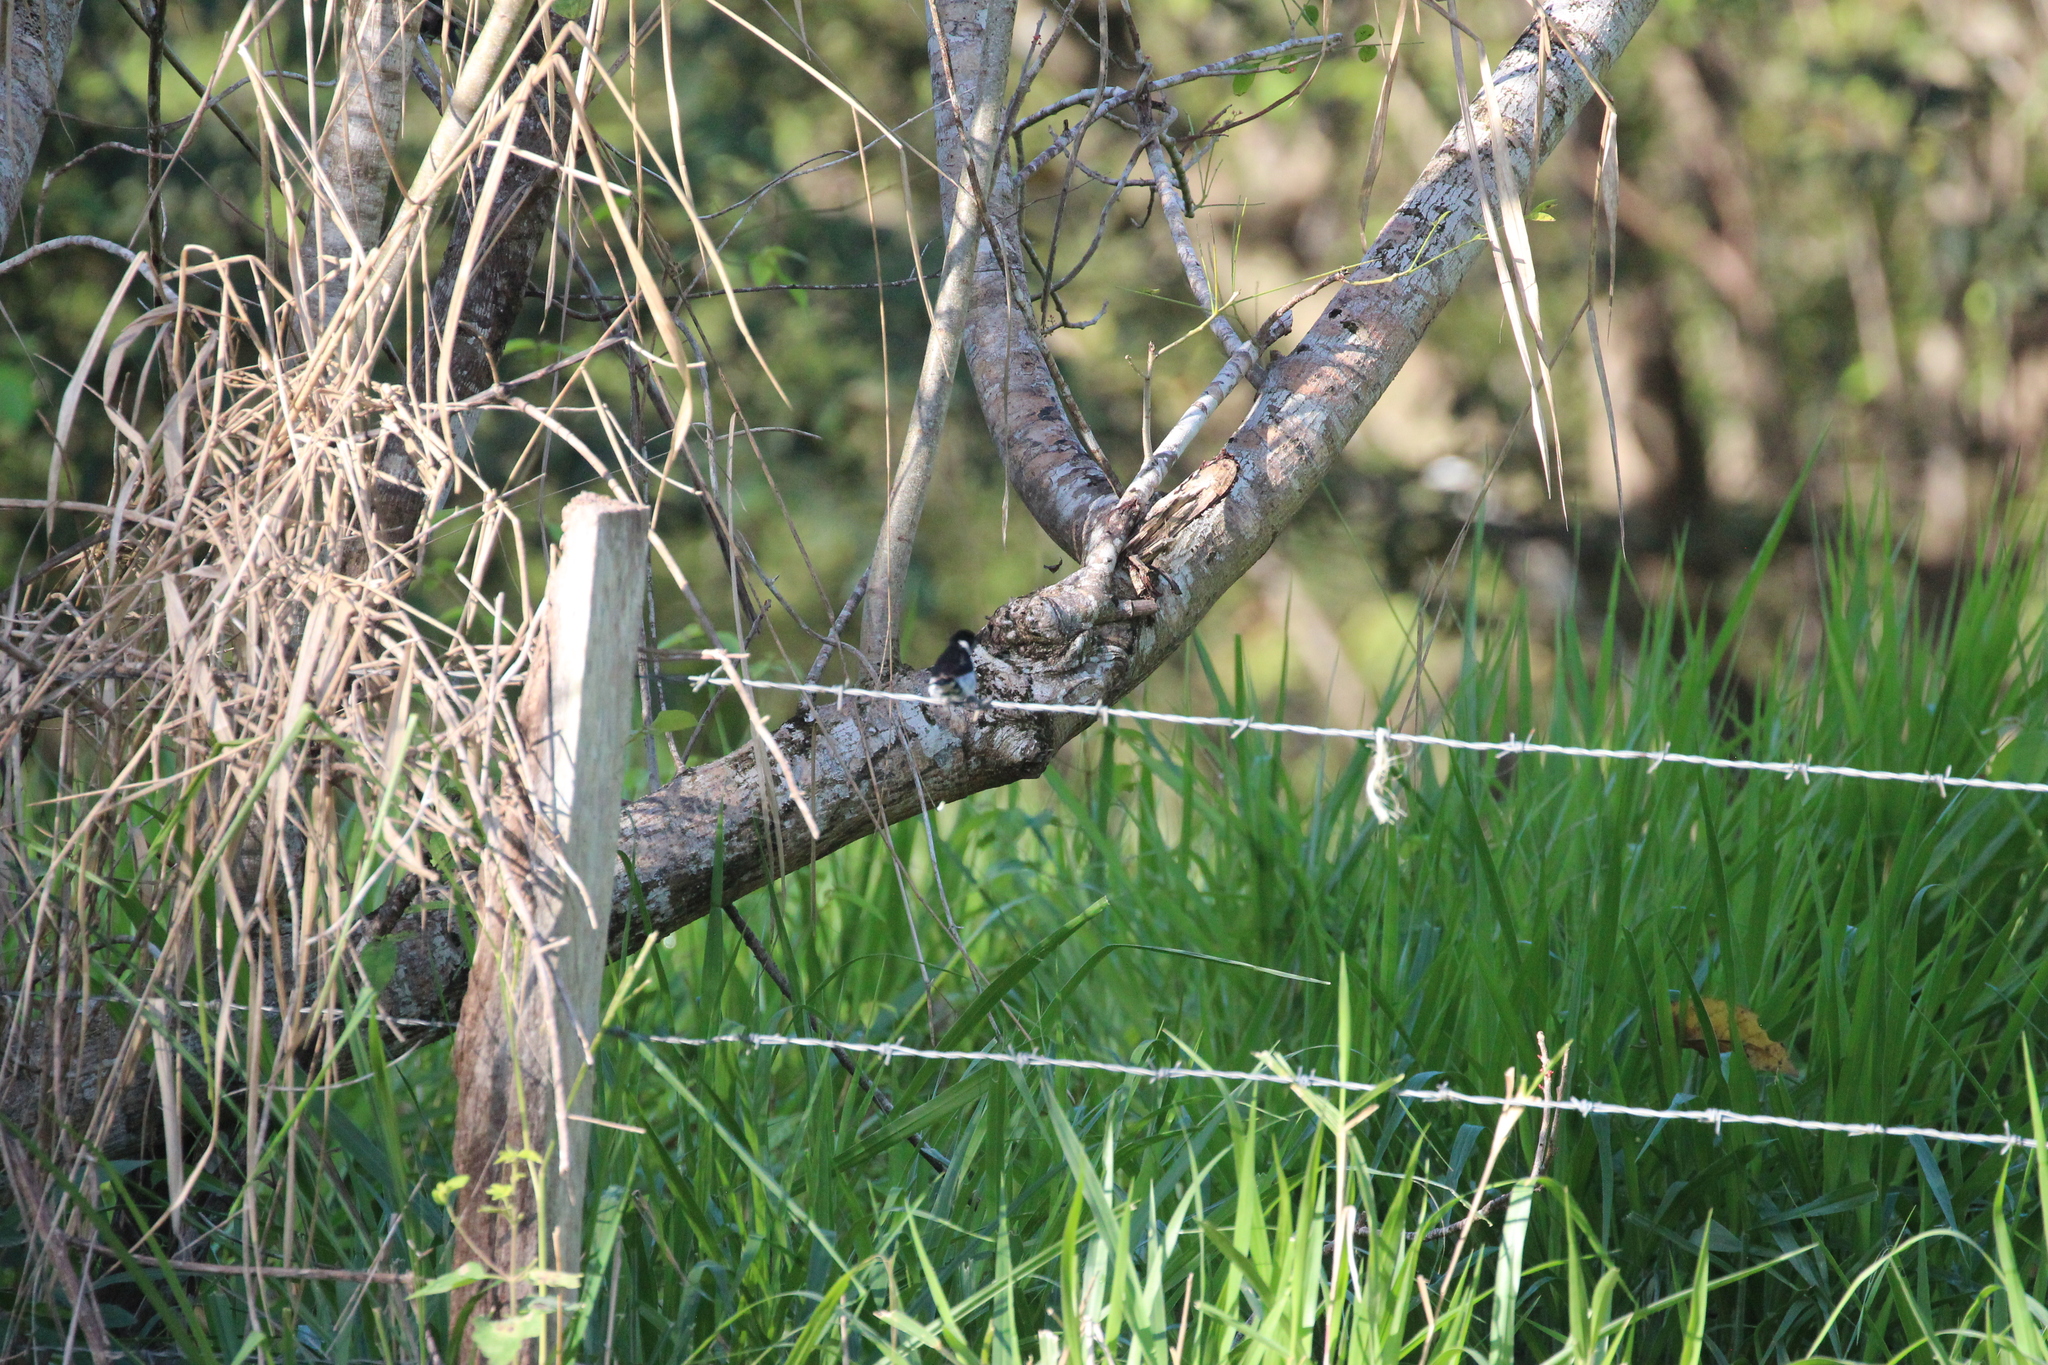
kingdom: Animalia
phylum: Chordata
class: Aves
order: Passeriformes
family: Thraupidae
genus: Sporophila
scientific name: Sporophila corvina
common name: Variable seedeater
